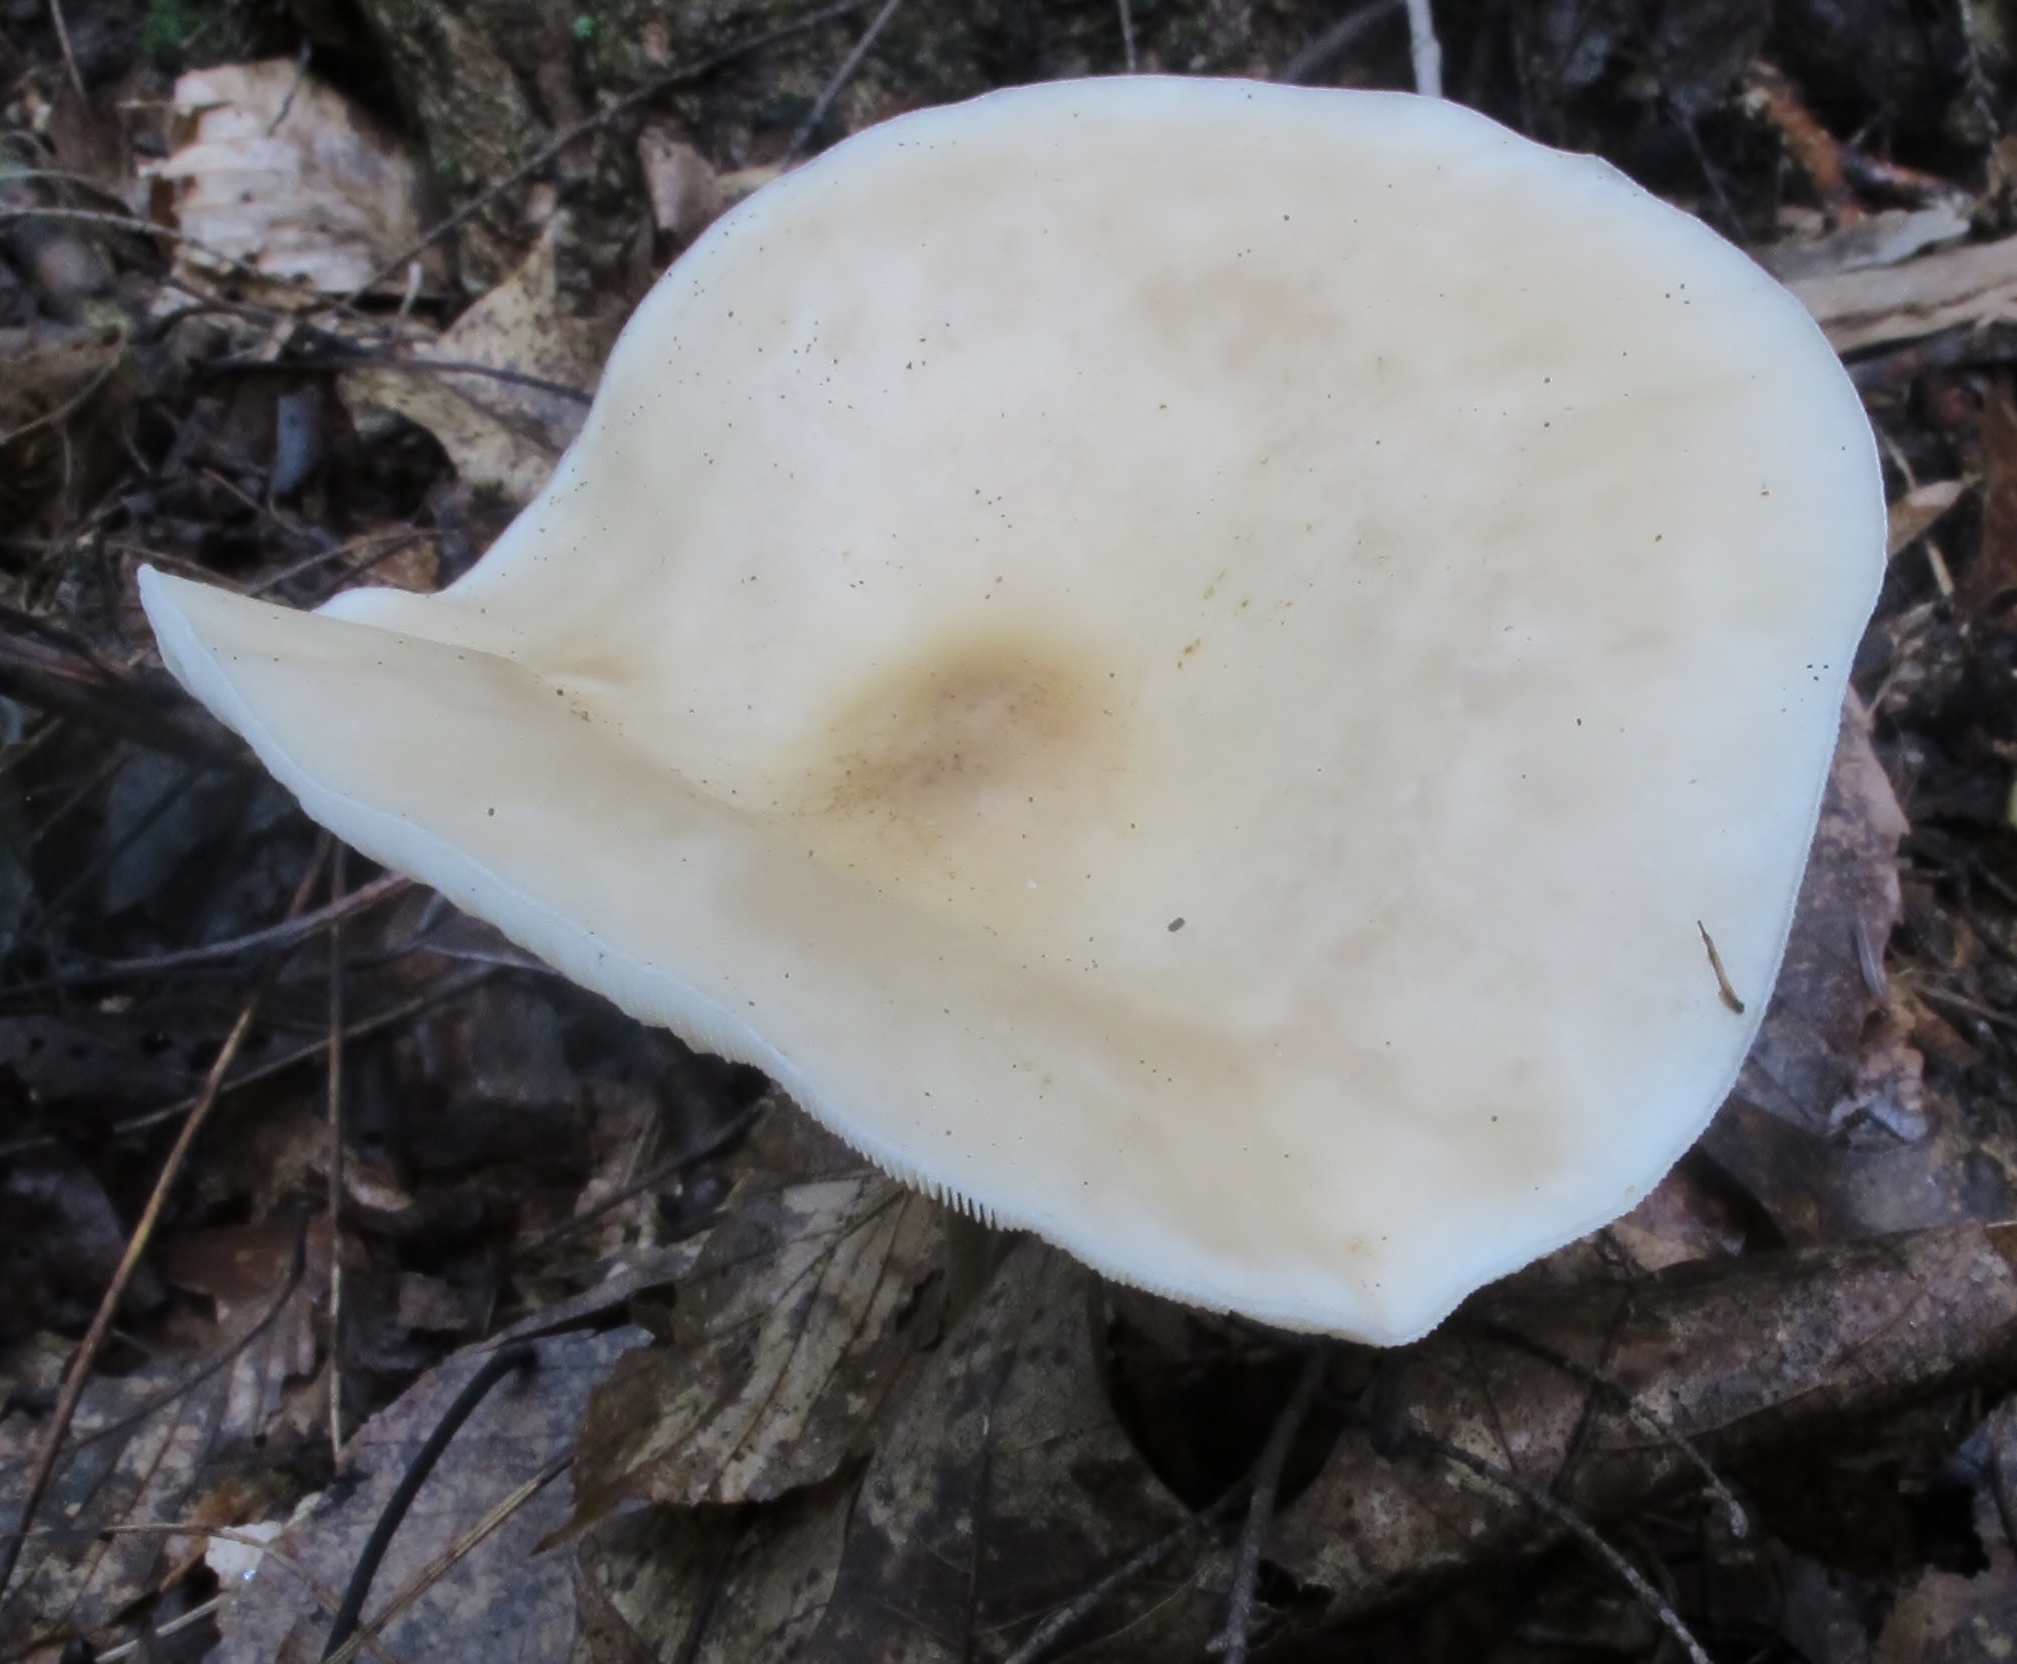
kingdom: Fungi
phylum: Basidiomycota
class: Agaricomycetes
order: Agaricales
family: Tricholomataceae
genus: Collybia
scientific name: Collybia alboflavida
